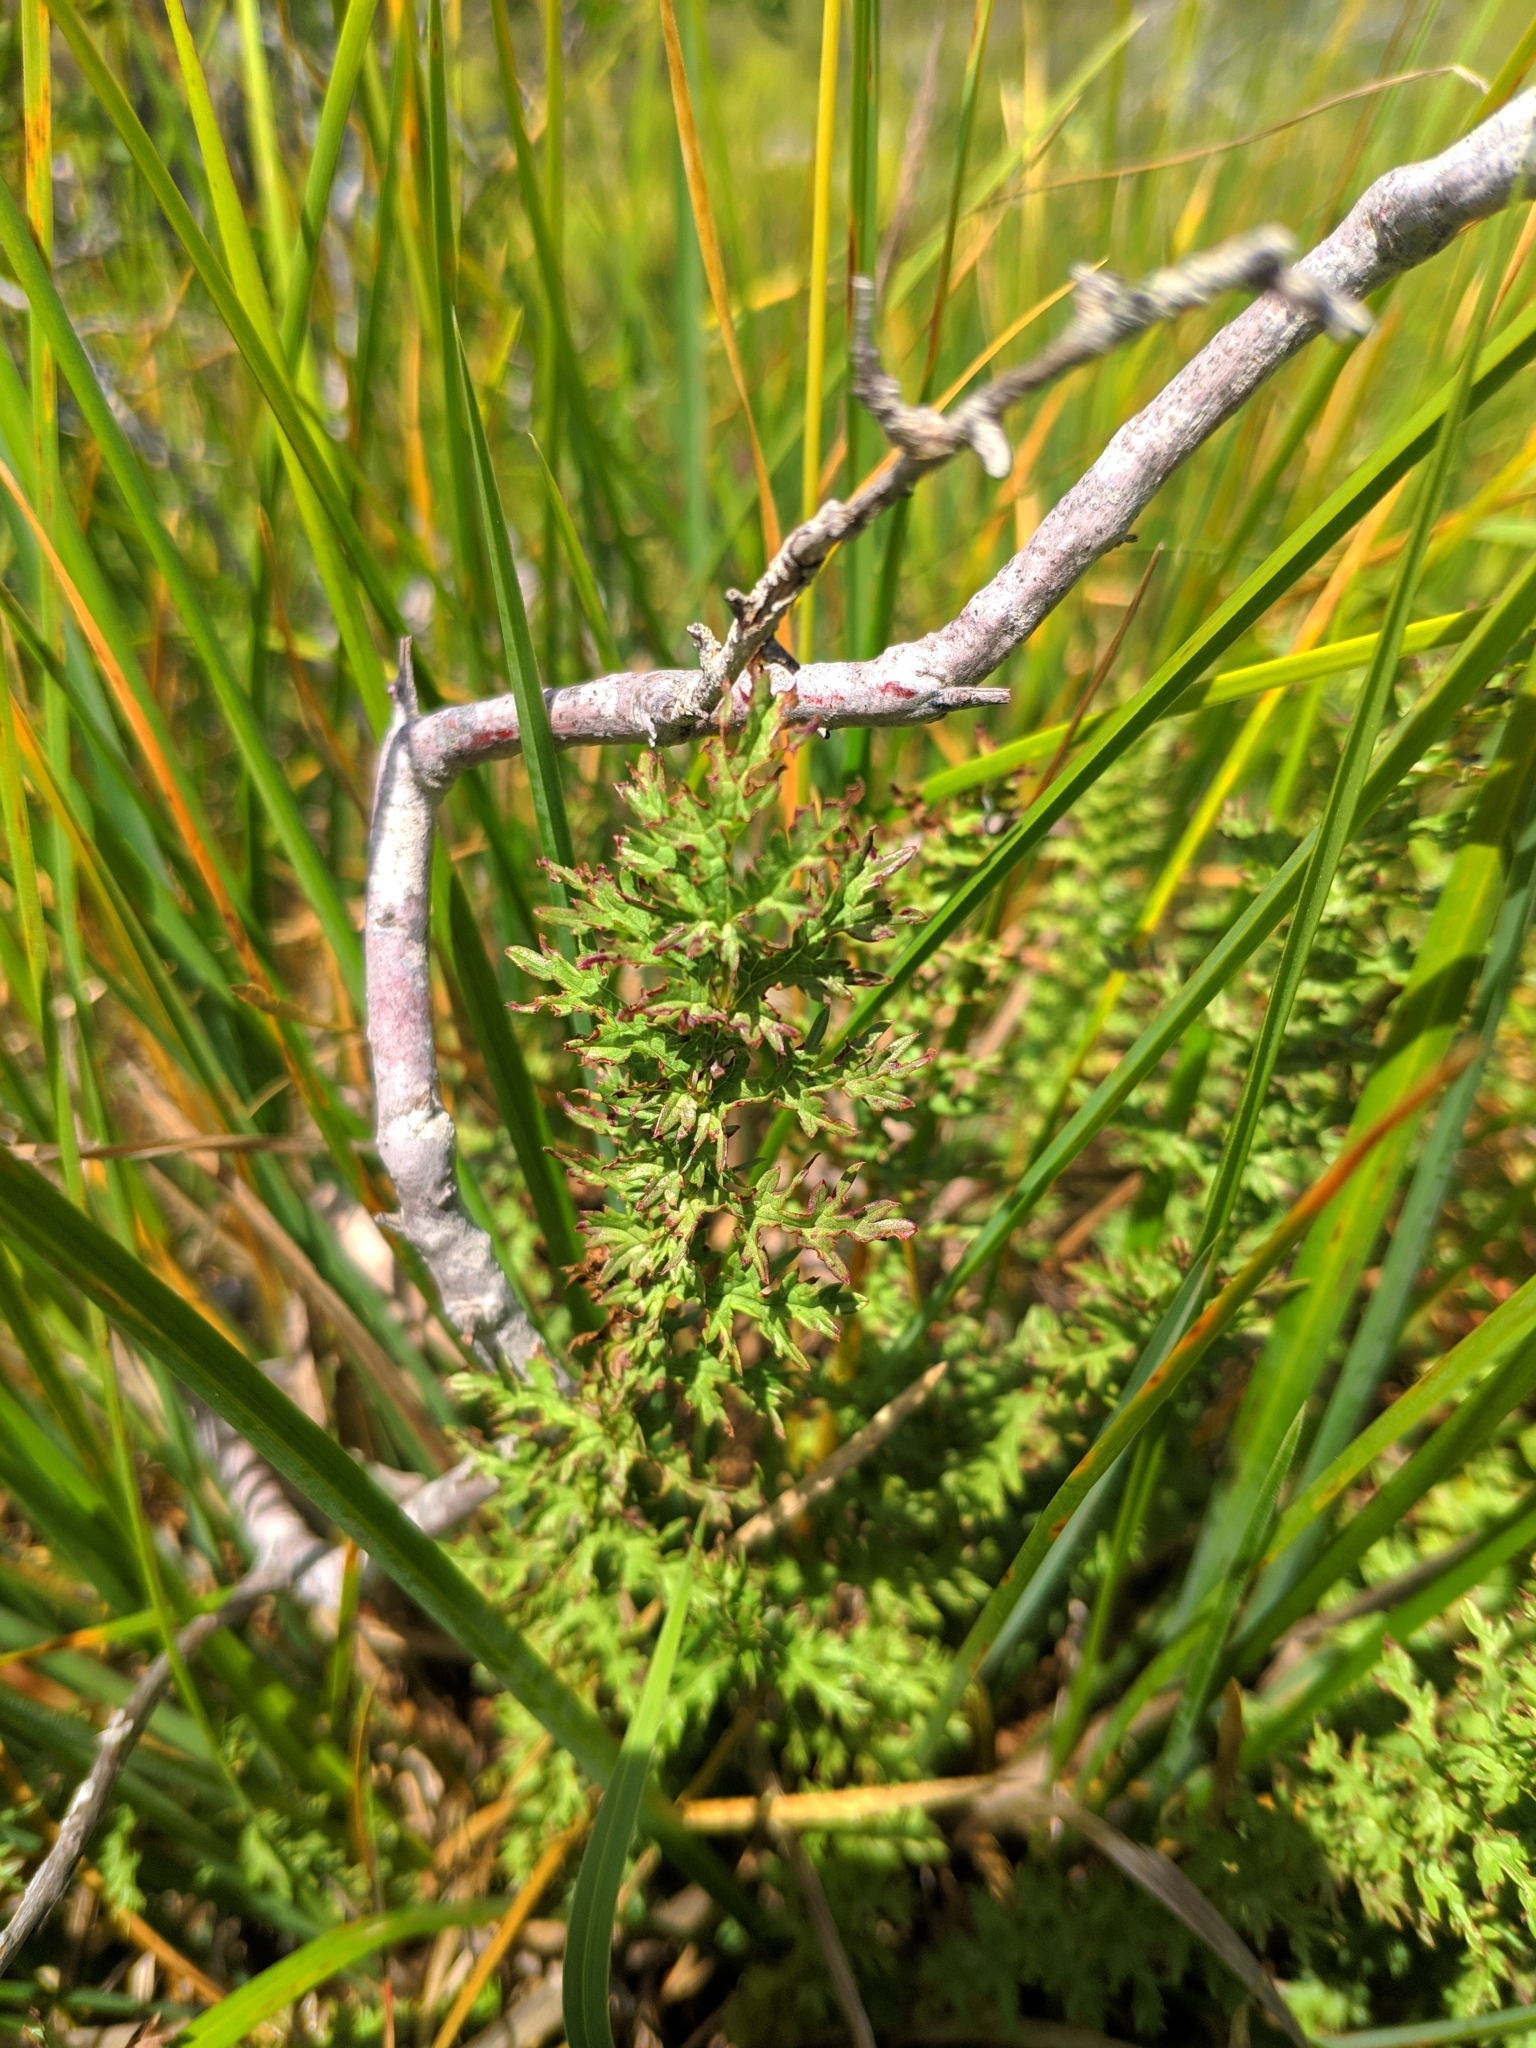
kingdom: Plantae
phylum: Tracheophyta
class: Magnoliopsida
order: Rosales
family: Rosaceae
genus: Filipendula
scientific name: Filipendula vulgaris
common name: Dropwort
